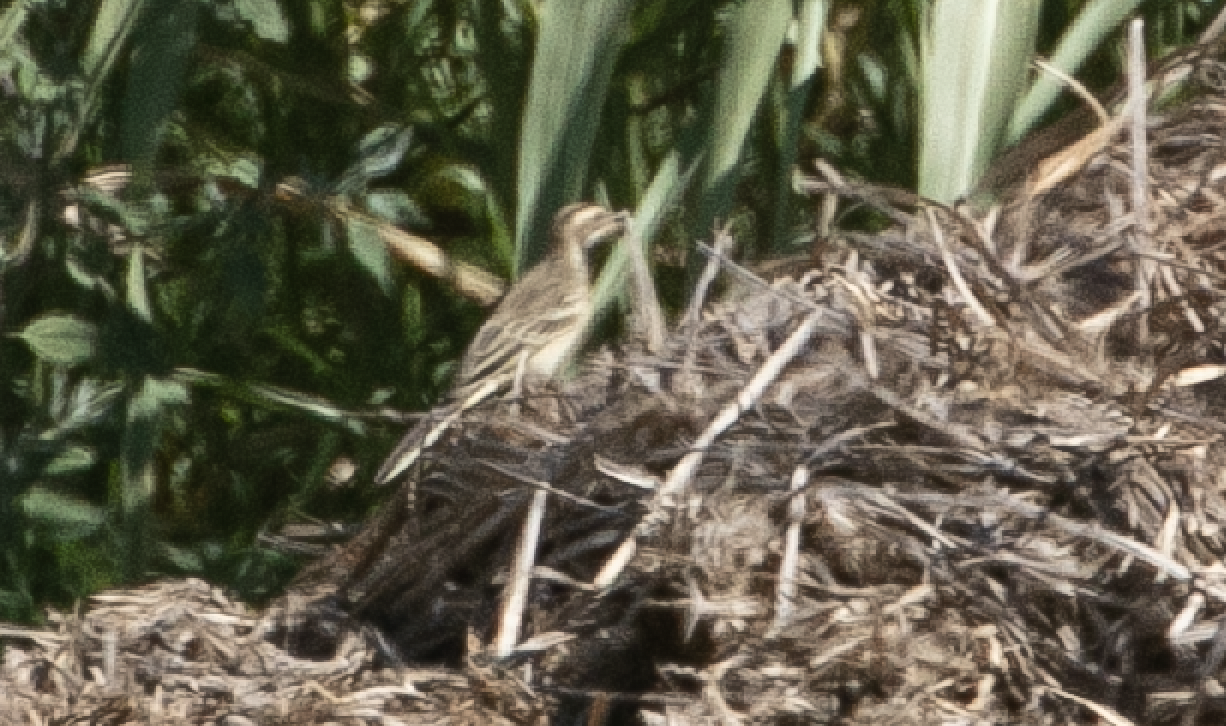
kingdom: Animalia
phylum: Chordata
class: Aves
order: Passeriformes
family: Motacillidae
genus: Motacilla
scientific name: Motacilla flava
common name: Western yellow wagtail
